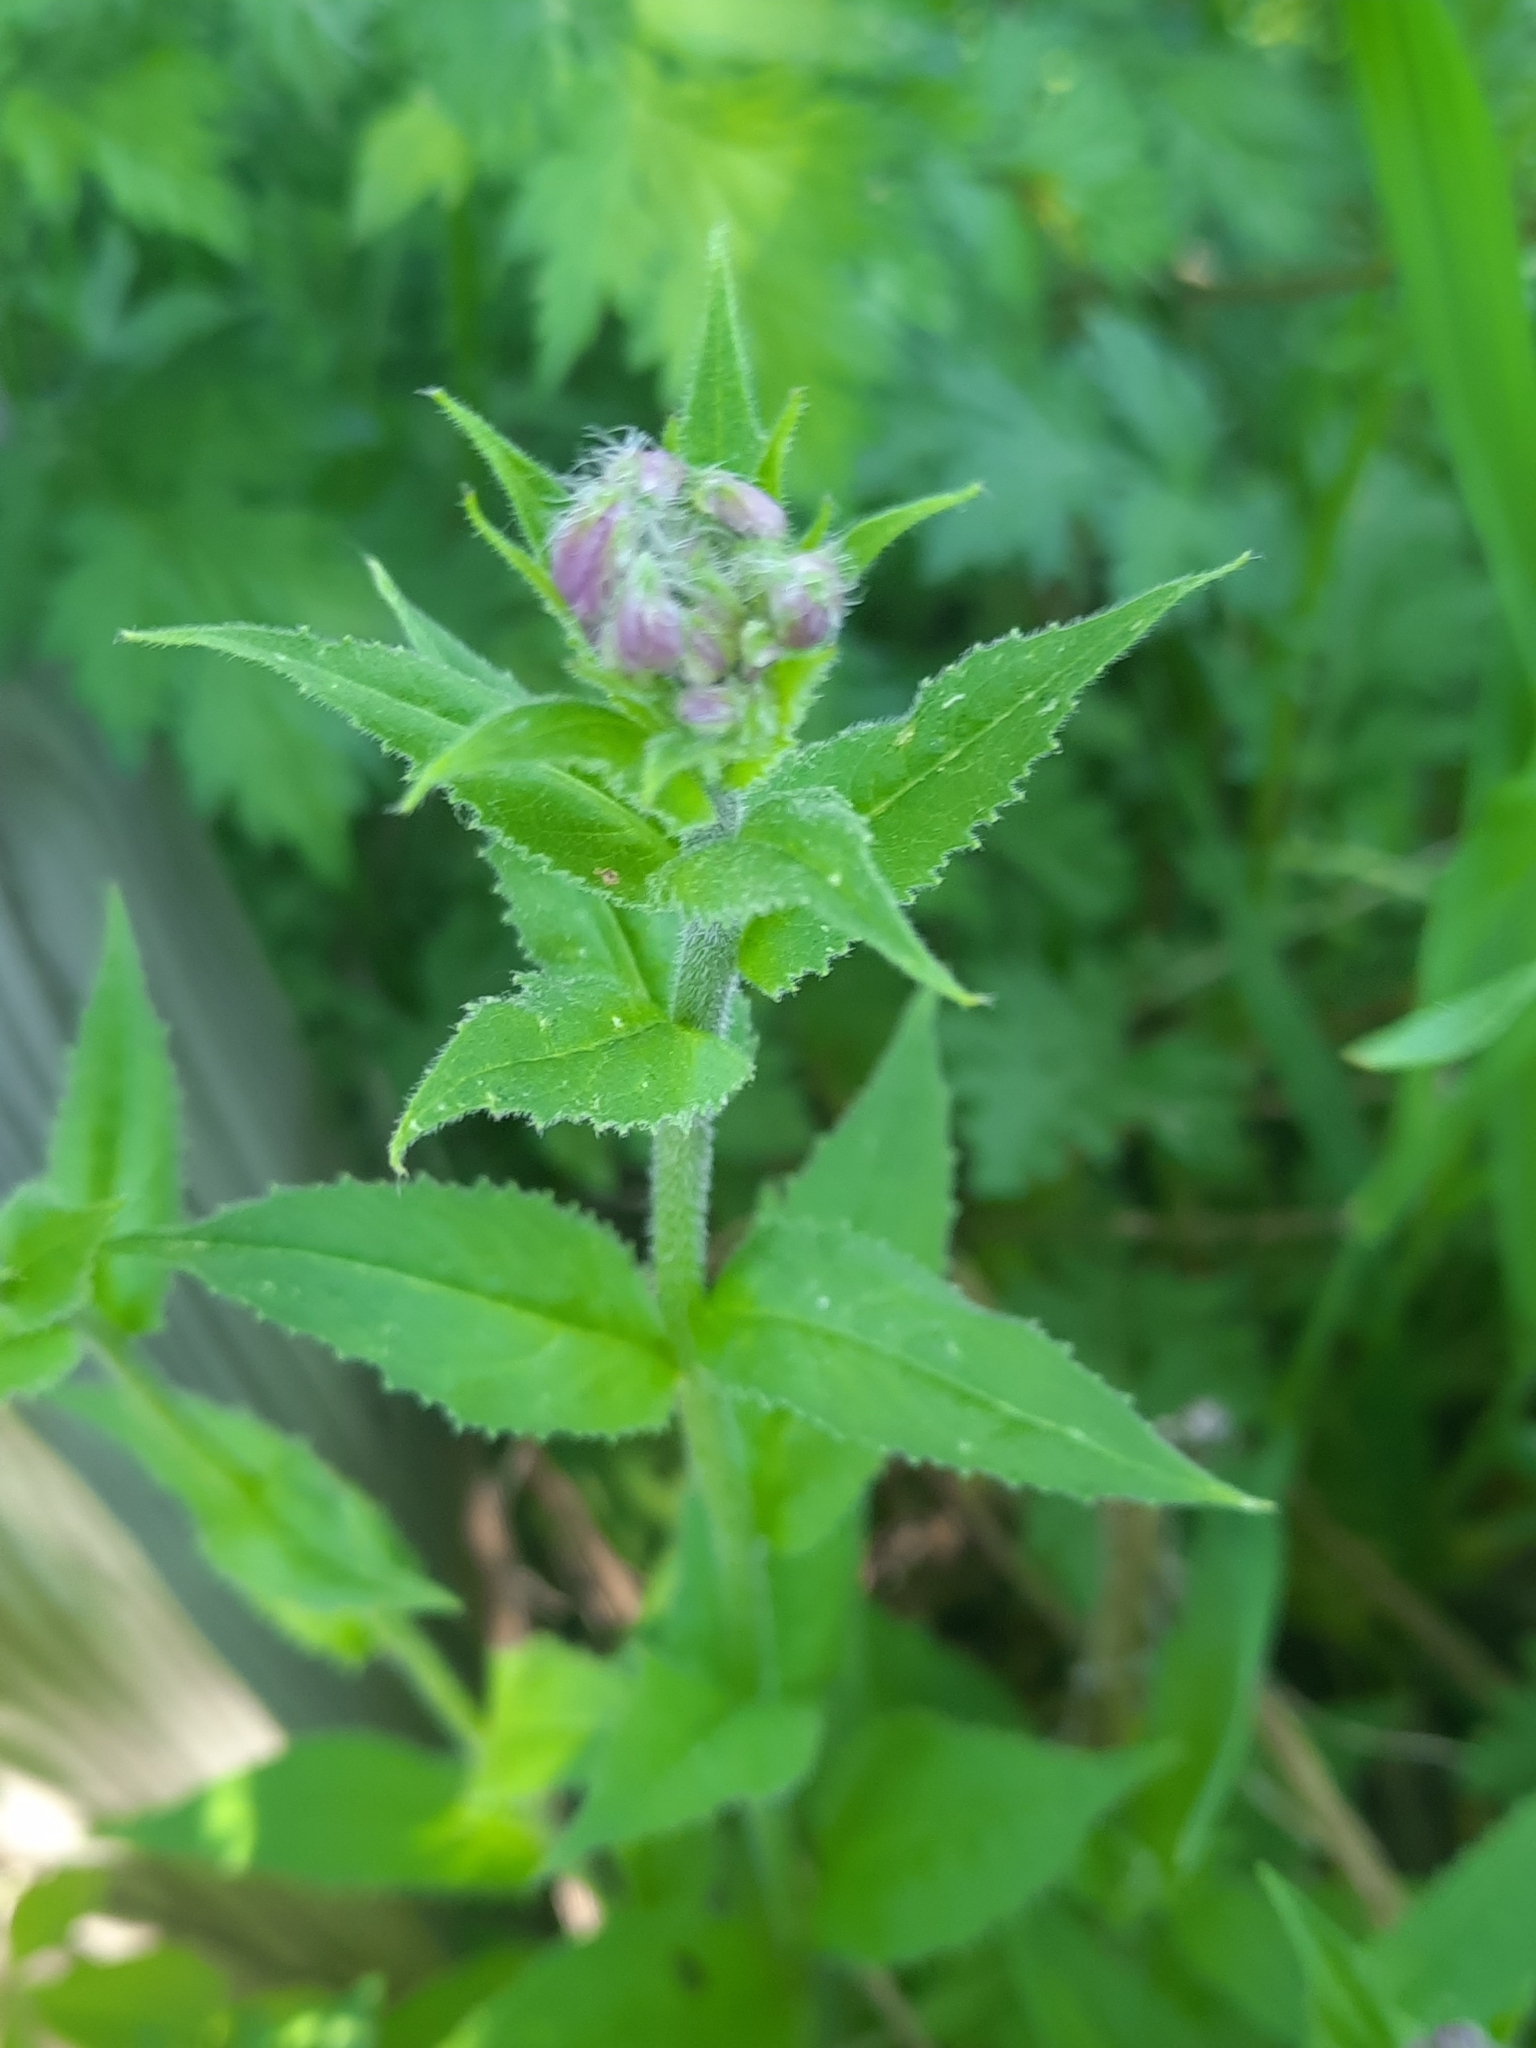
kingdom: Plantae
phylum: Tracheophyta
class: Magnoliopsida
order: Brassicales
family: Brassicaceae
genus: Hesperis
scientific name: Hesperis matronalis
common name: Dame's-violet
